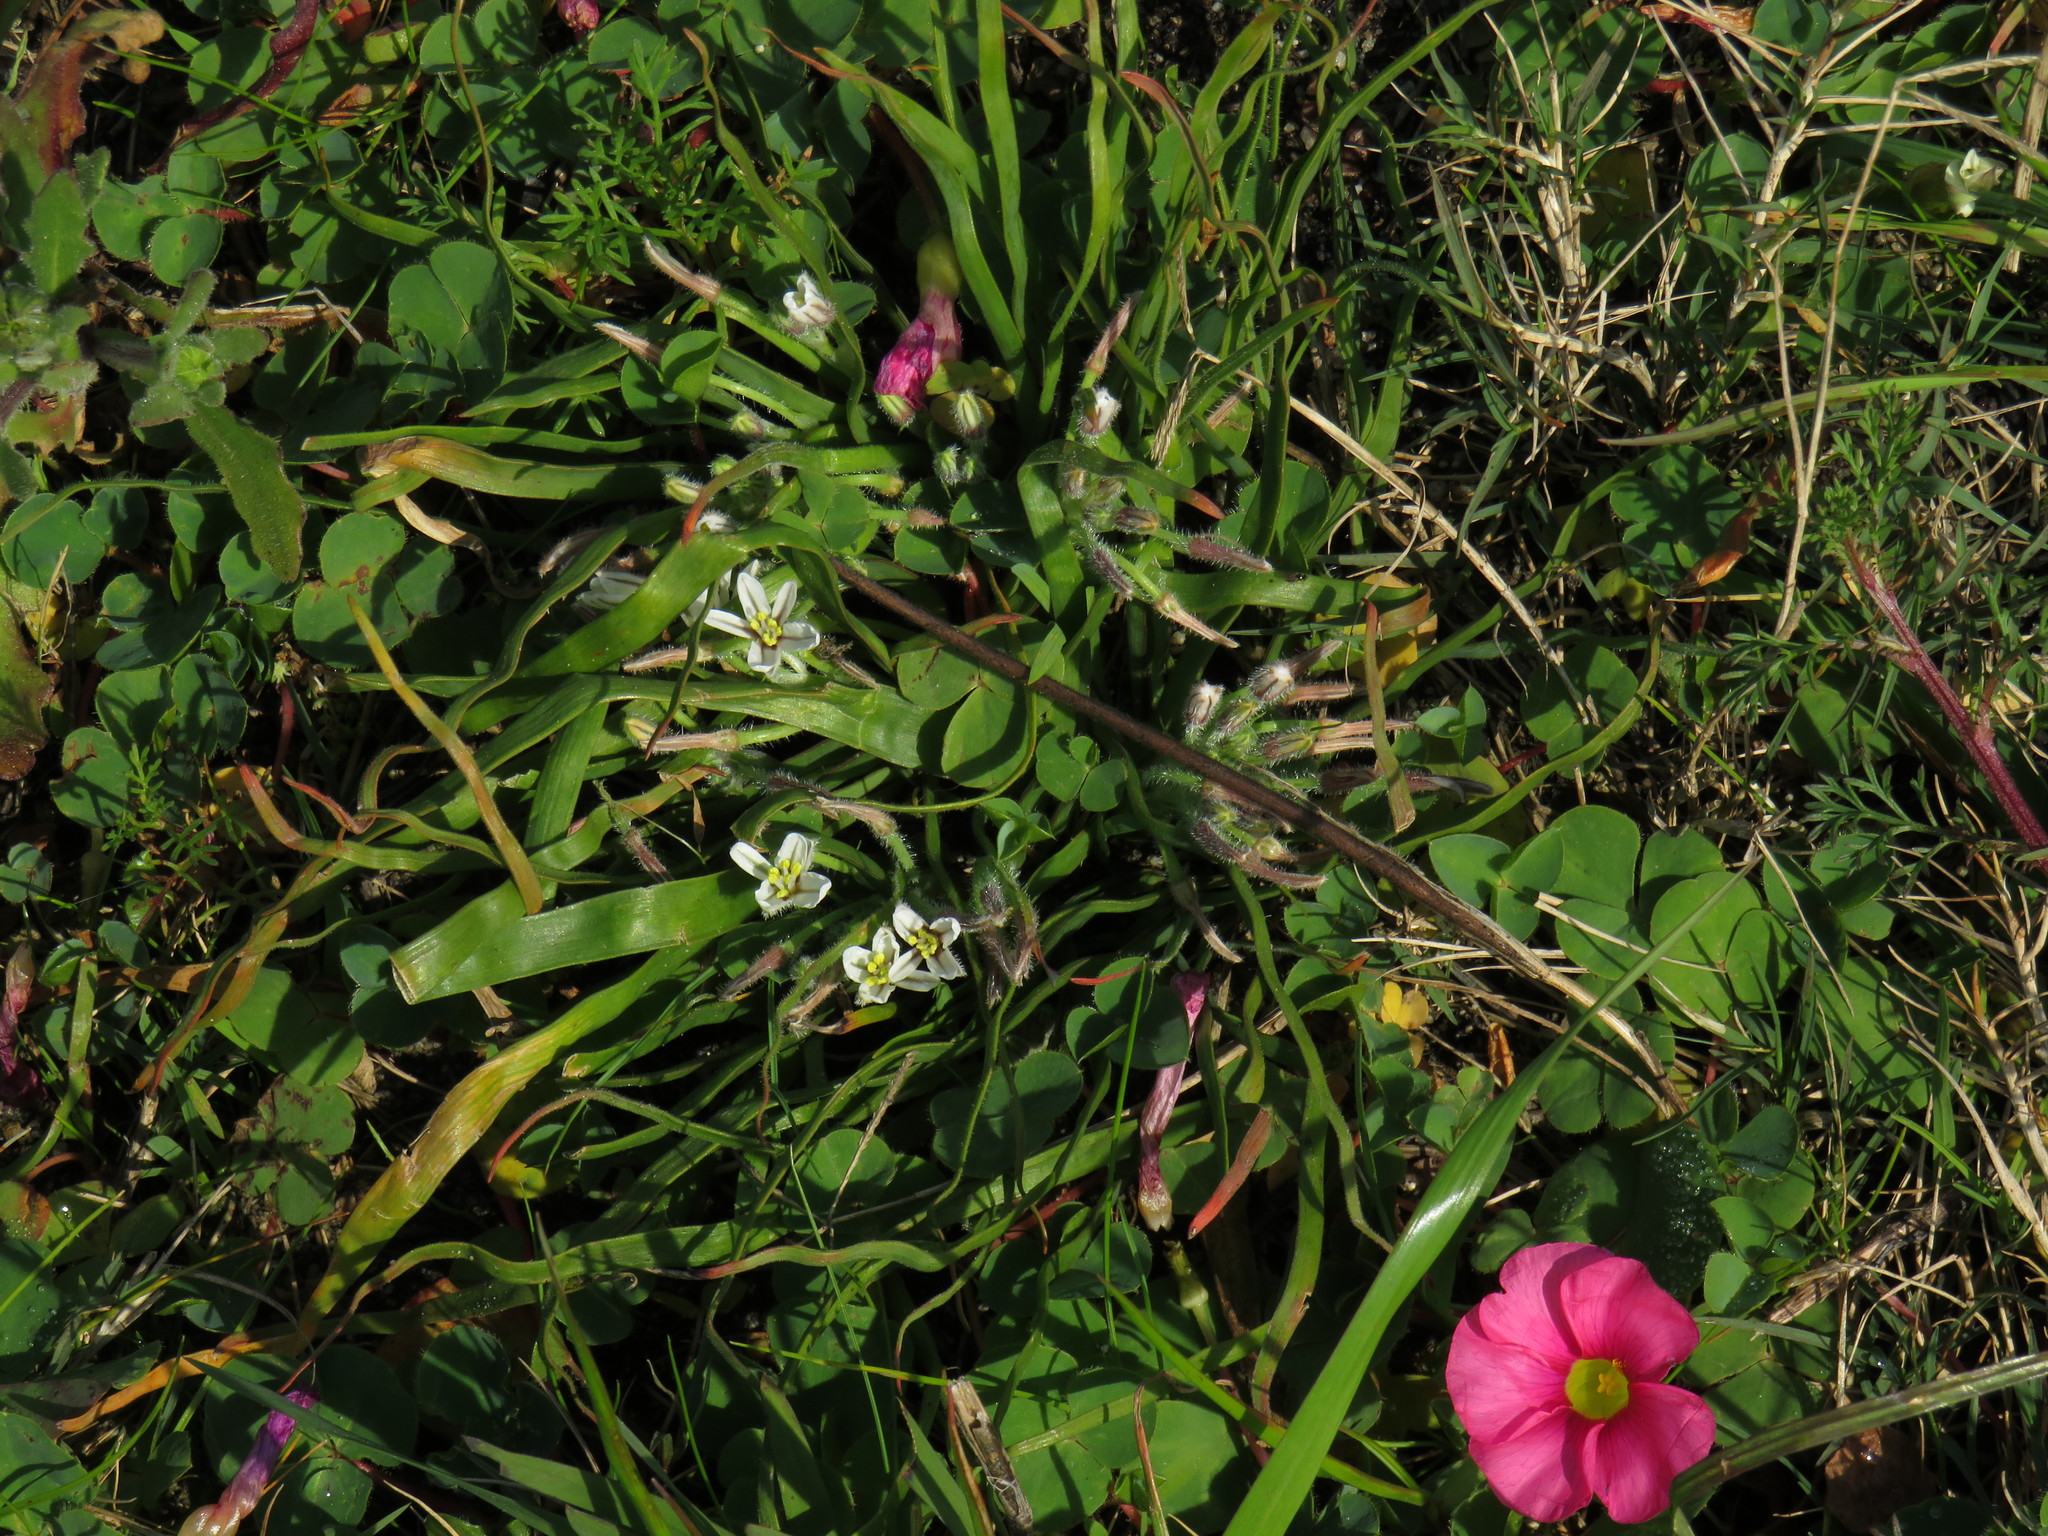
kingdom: Plantae
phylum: Tracheophyta
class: Liliopsida
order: Asparagales
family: Asphodelaceae
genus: Trachyandra
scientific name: Trachyandra hispida
